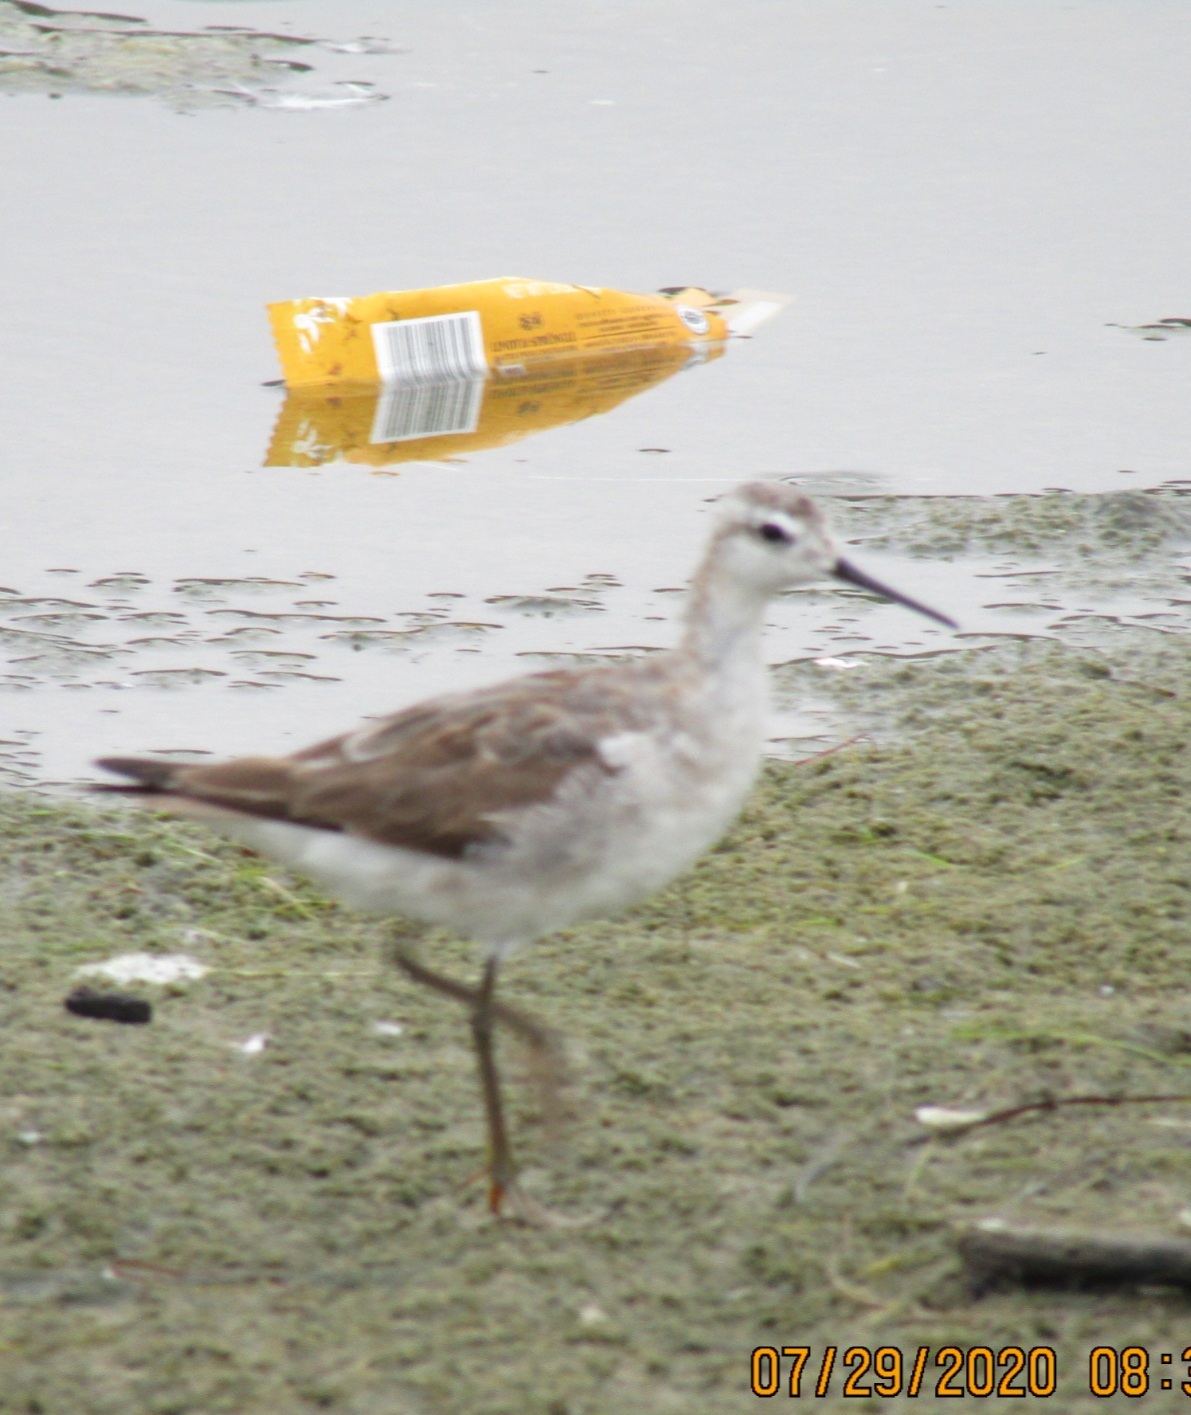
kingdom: Animalia
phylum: Chordata
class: Aves
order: Charadriiformes
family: Scolopacidae
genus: Phalaropus
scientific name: Phalaropus tricolor
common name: Wilson's phalarope
